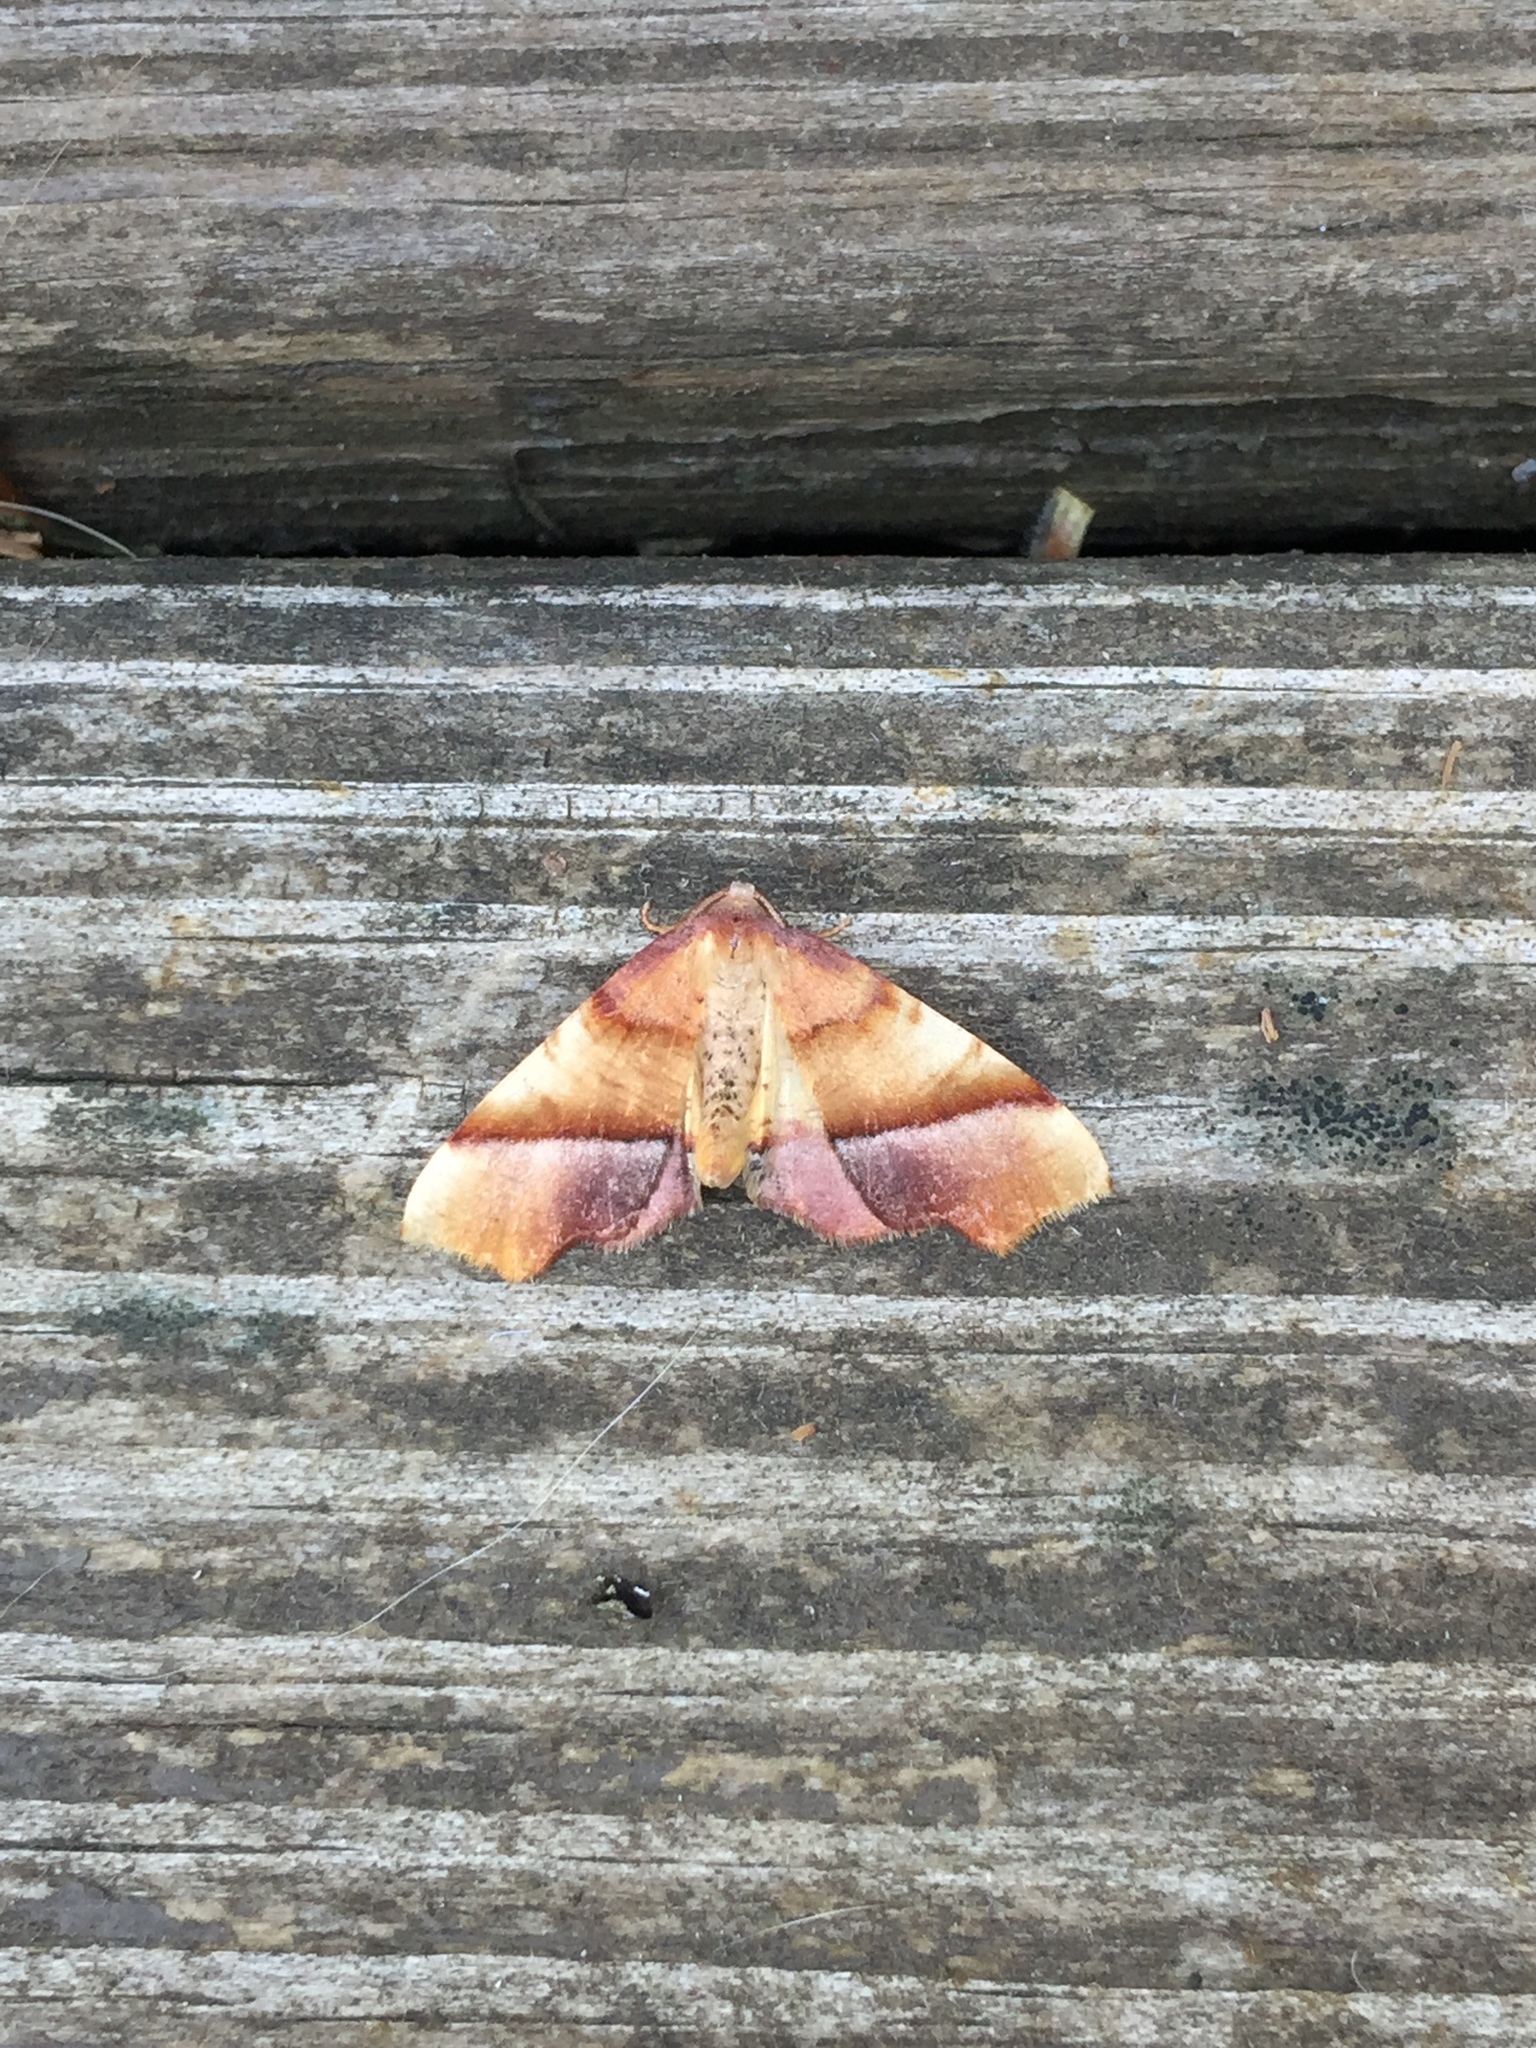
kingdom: Animalia
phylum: Arthropoda
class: Insecta
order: Lepidoptera
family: Geometridae
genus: Plagodis
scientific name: Plagodis phlogosaria
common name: Straight-lined plagodis
